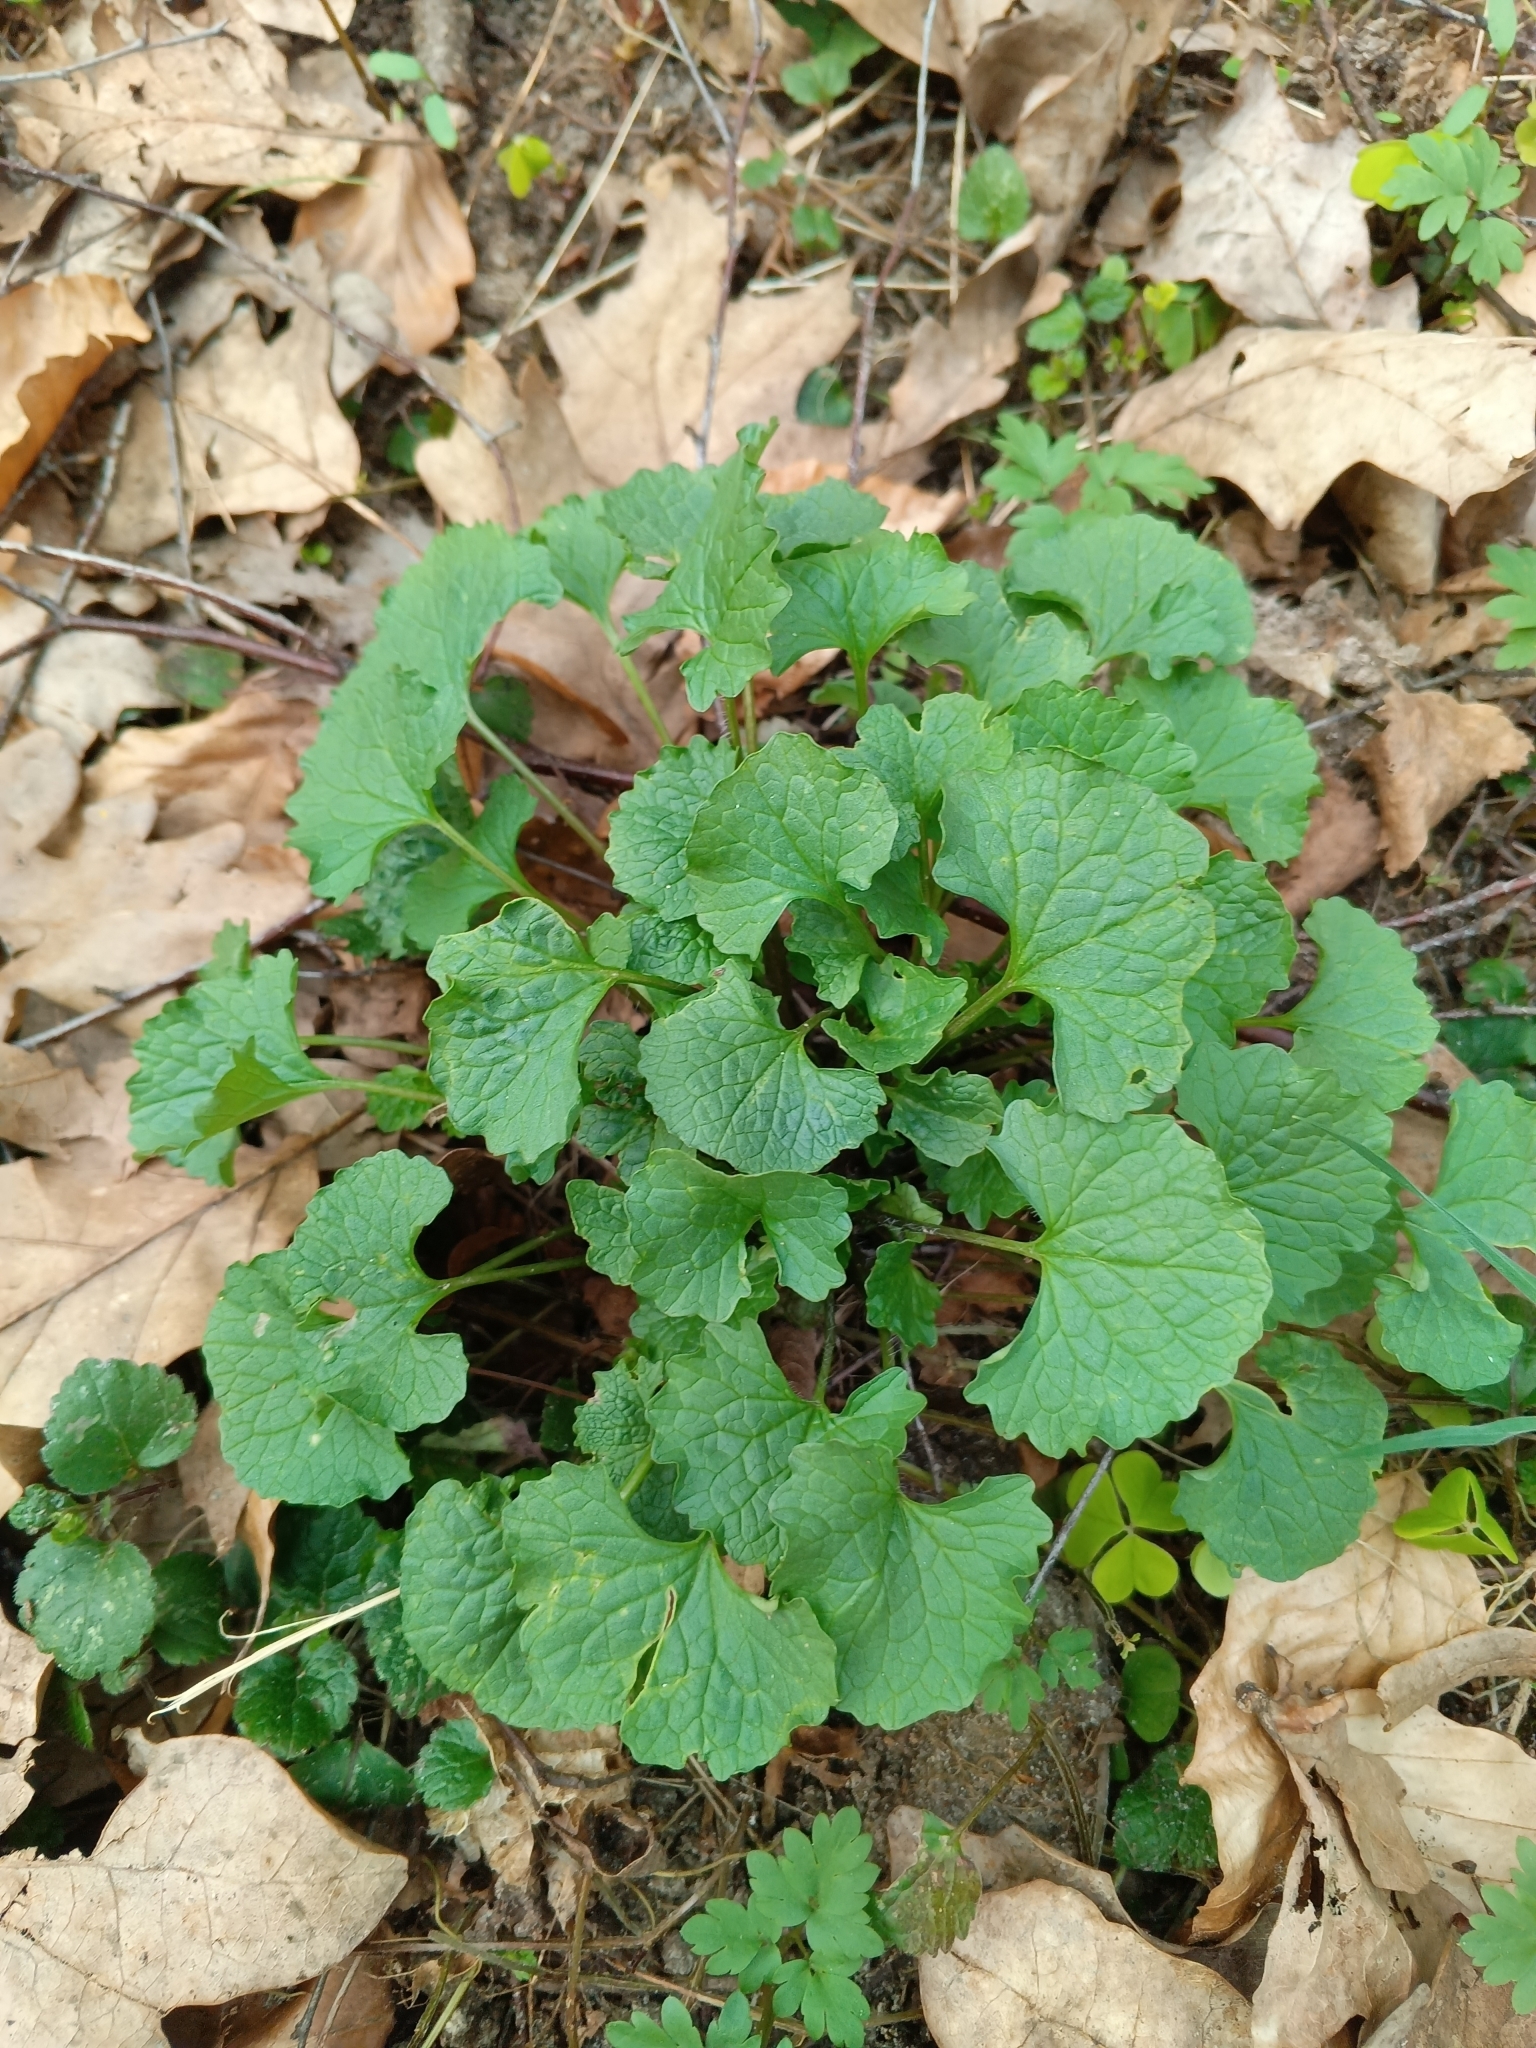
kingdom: Plantae
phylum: Tracheophyta
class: Magnoliopsida
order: Brassicales
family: Brassicaceae
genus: Alliaria
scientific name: Alliaria petiolata
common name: Garlic mustard
